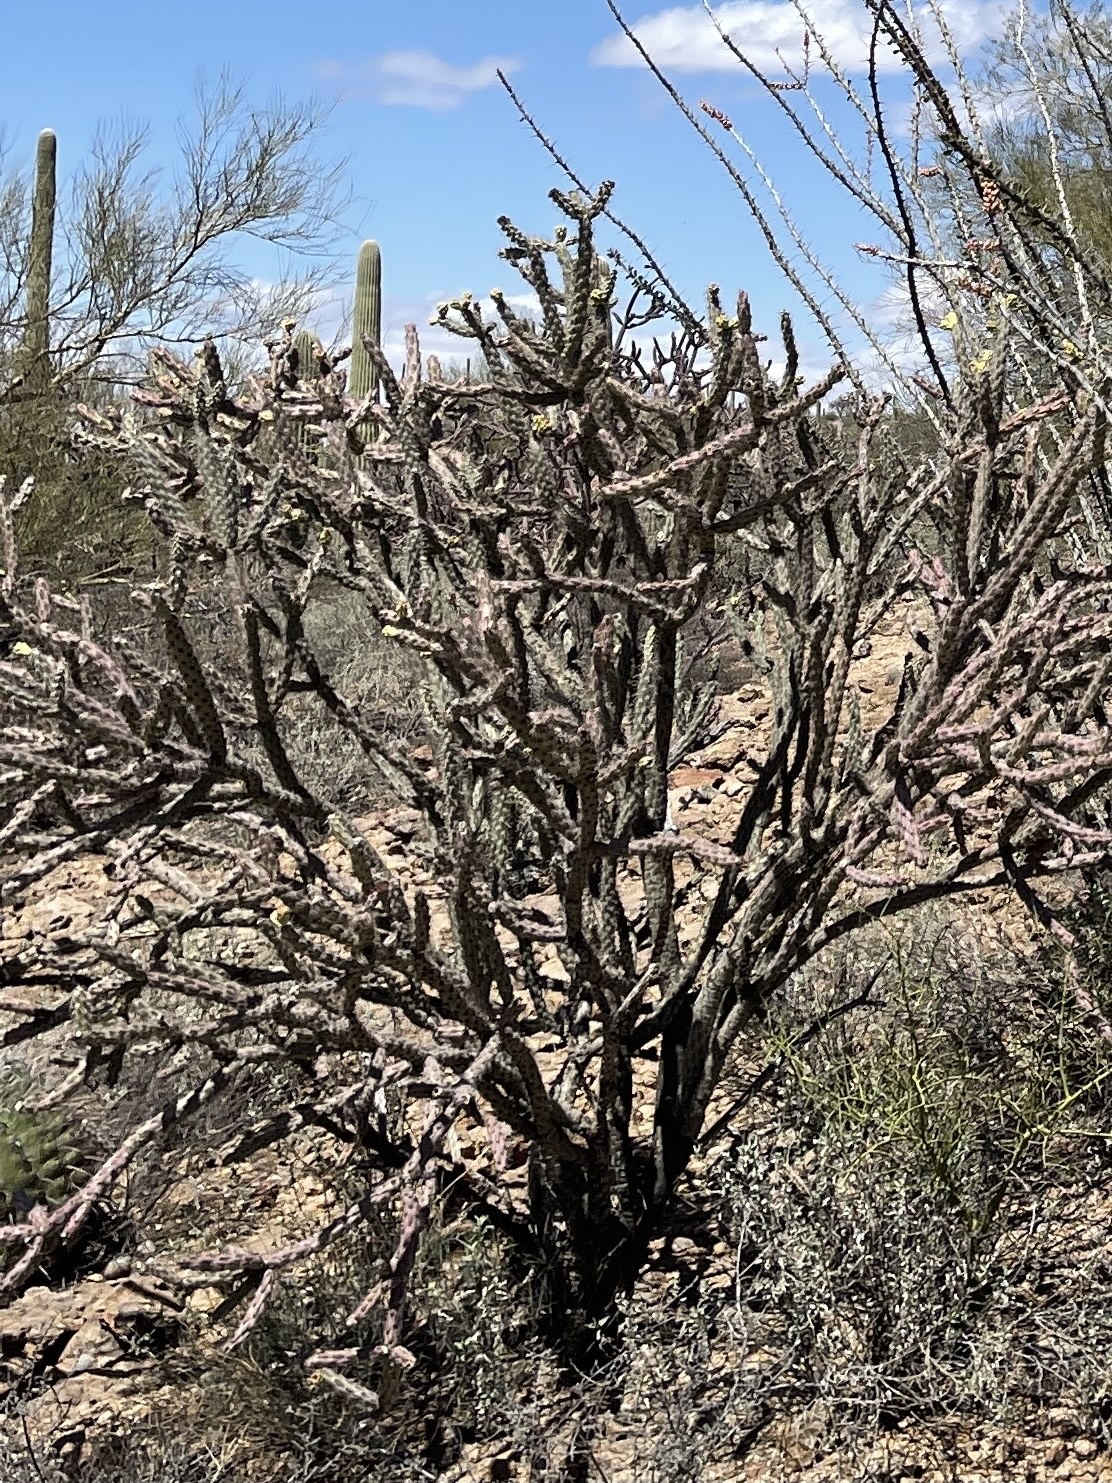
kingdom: Plantae
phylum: Tracheophyta
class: Magnoliopsida
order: Caryophyllales
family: Cactaceae
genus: Cylindropuntia
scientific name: Cylindropuntia acanthocarpa
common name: Buckhorn cholla
